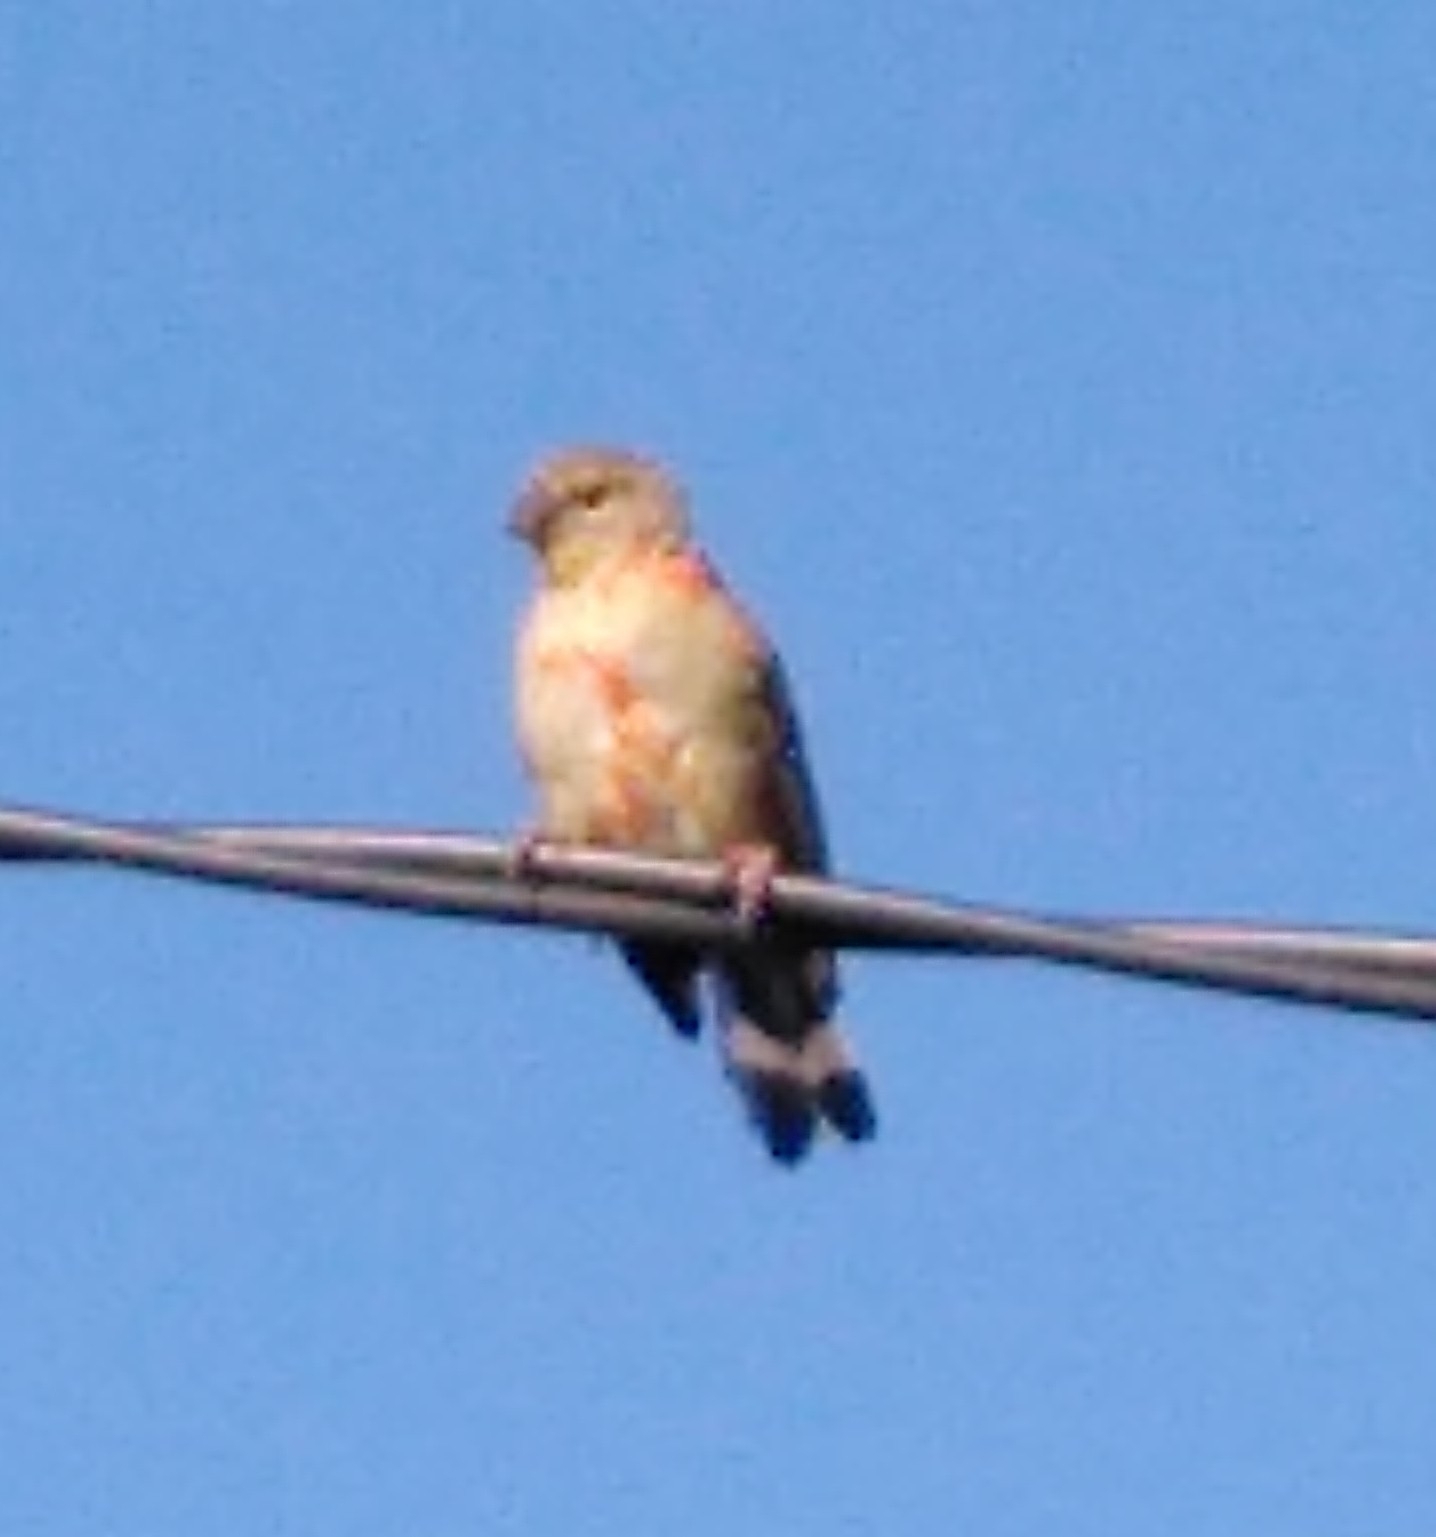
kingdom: Animalia
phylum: Chordata
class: Aves
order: Passeriformes
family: Ploceidae
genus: Foudia
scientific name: Foudia madagascariensis
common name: Red fody
